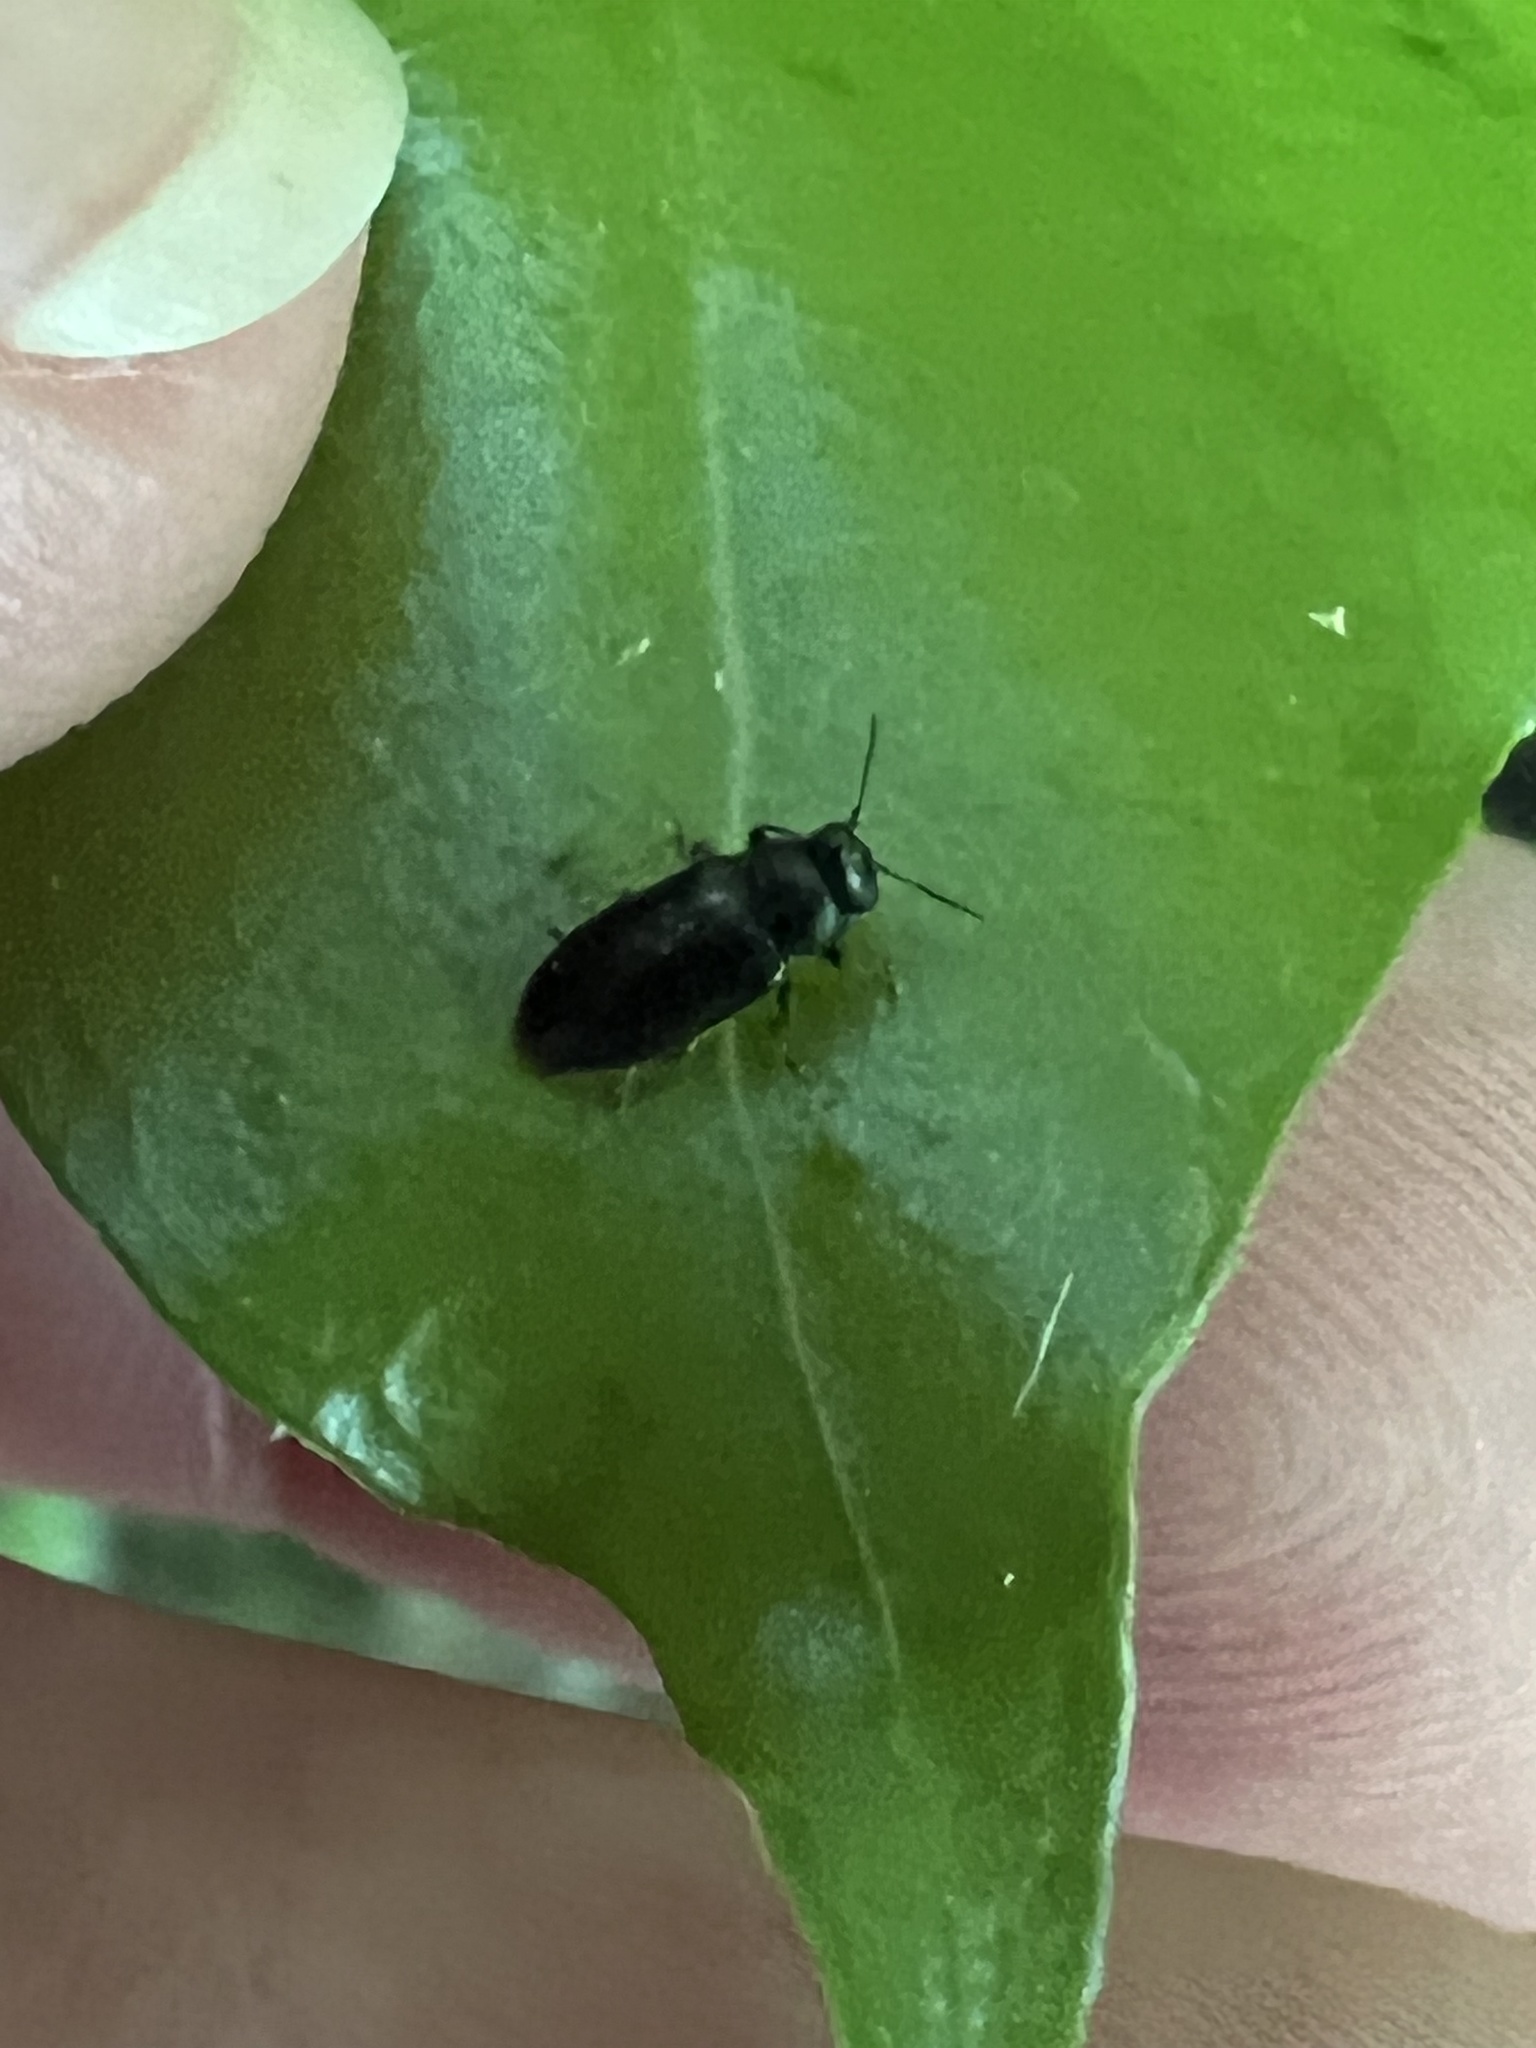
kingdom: Animalia
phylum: Arthropoda
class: Insecta
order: Coleoptera
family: Buprestidae
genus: Maoraxia
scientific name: Maoraxia eremita
